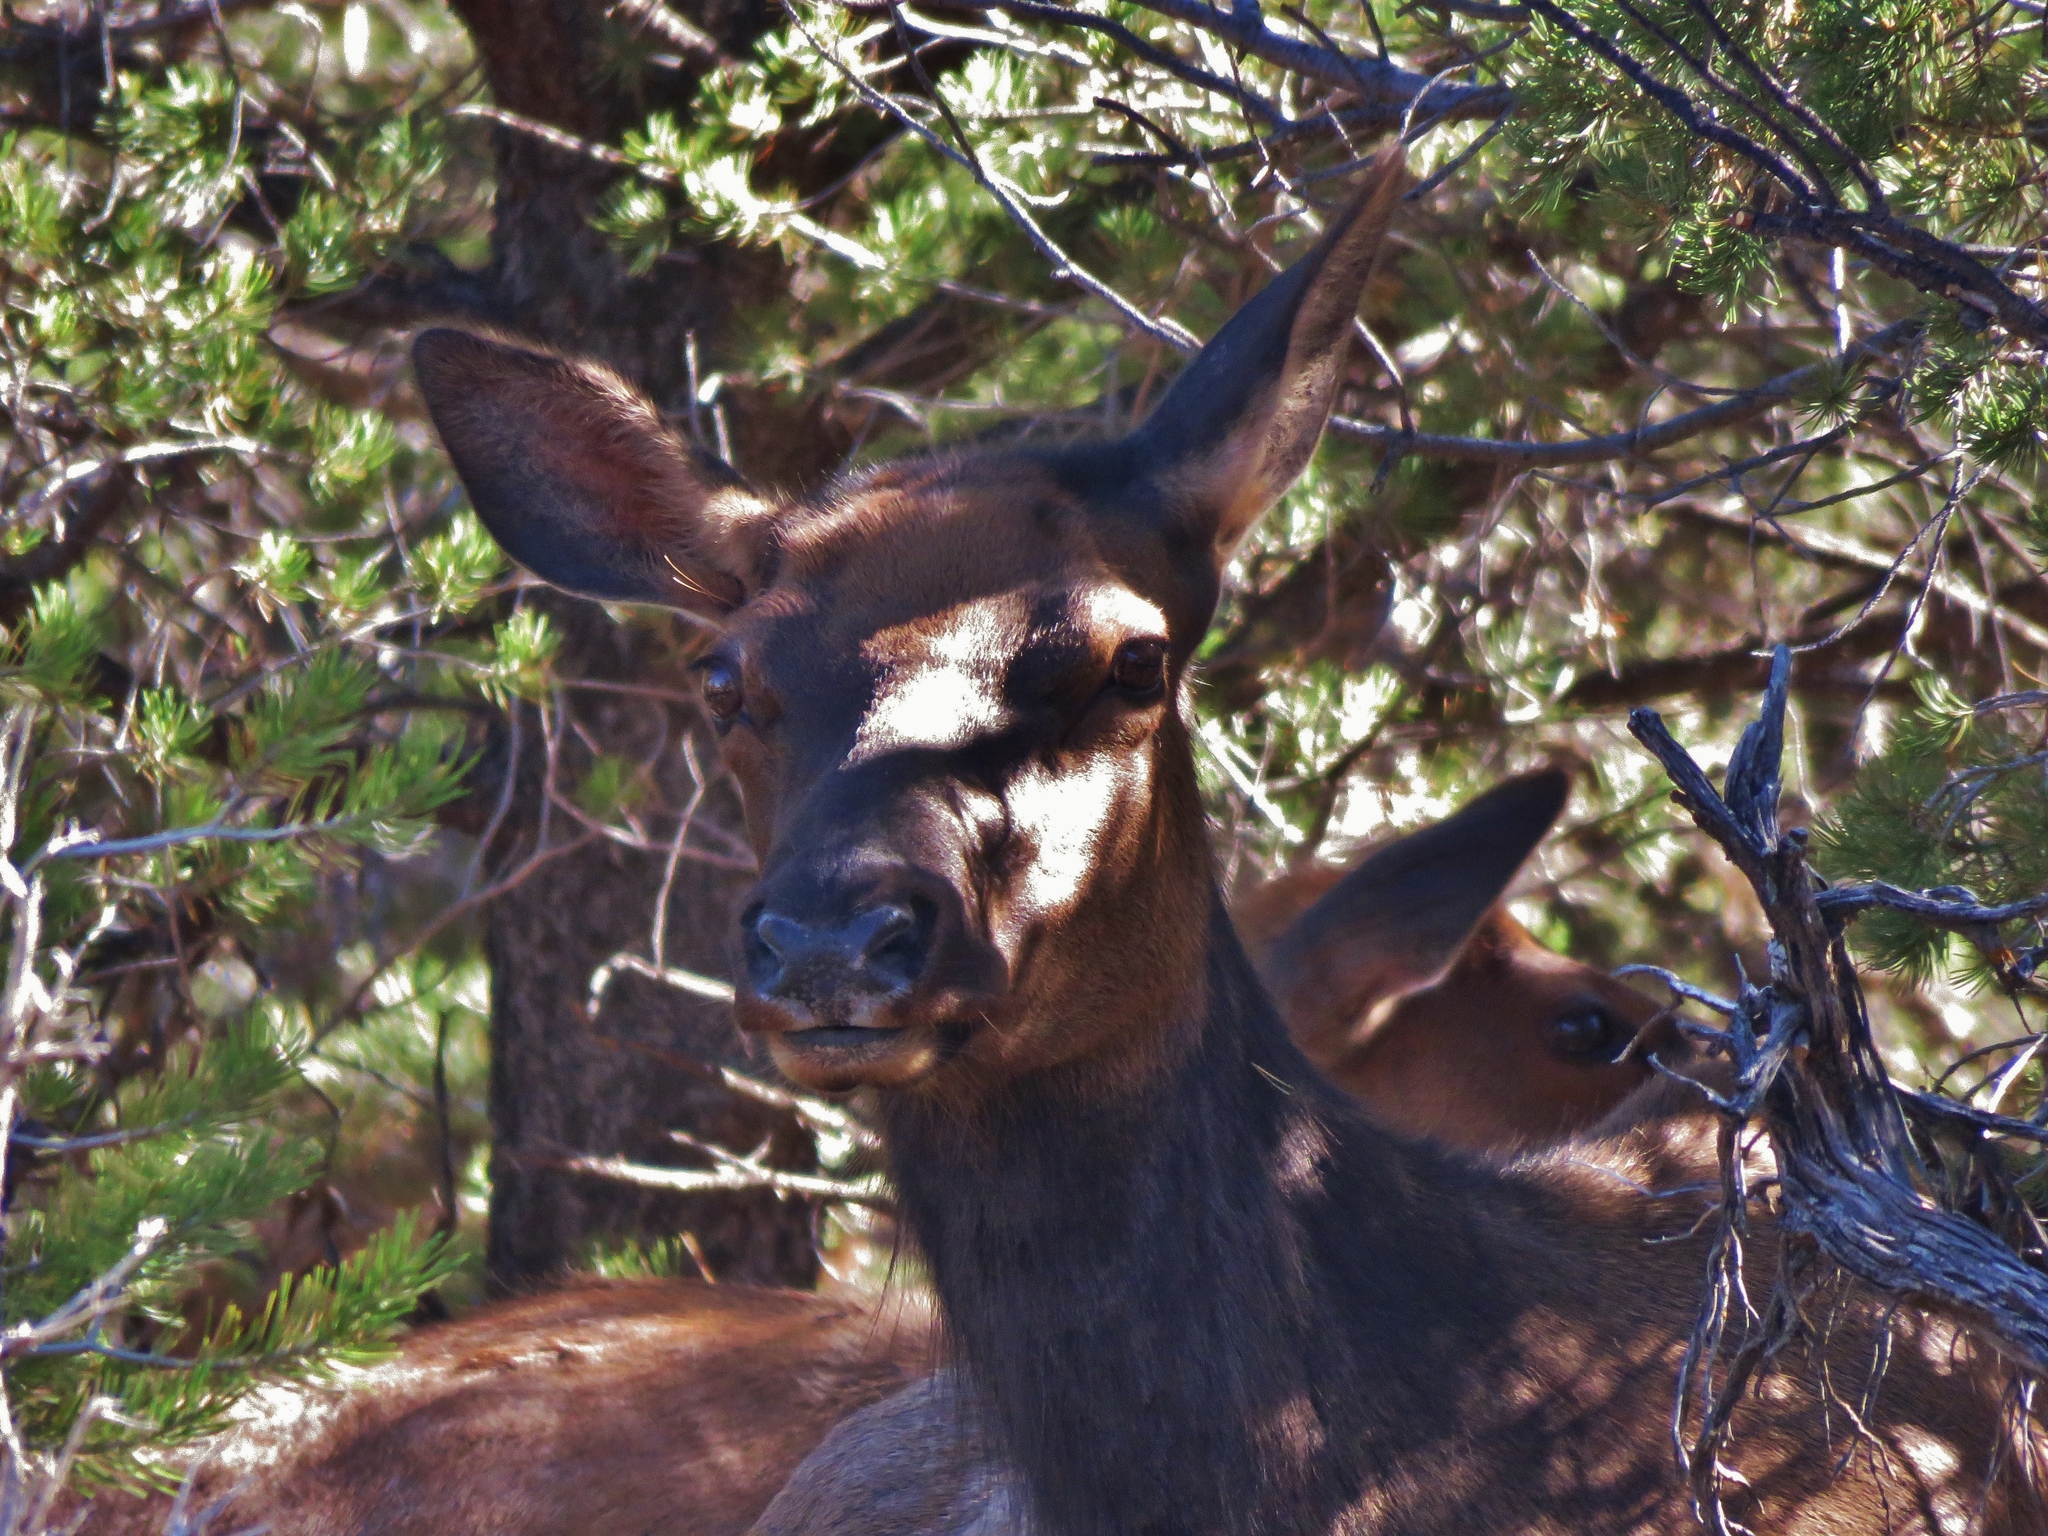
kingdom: Animalia
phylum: Chordata
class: Mammalia
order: Artiodactyla
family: Cervidae
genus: Cervus
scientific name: Cervus elaphus
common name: Red deer
